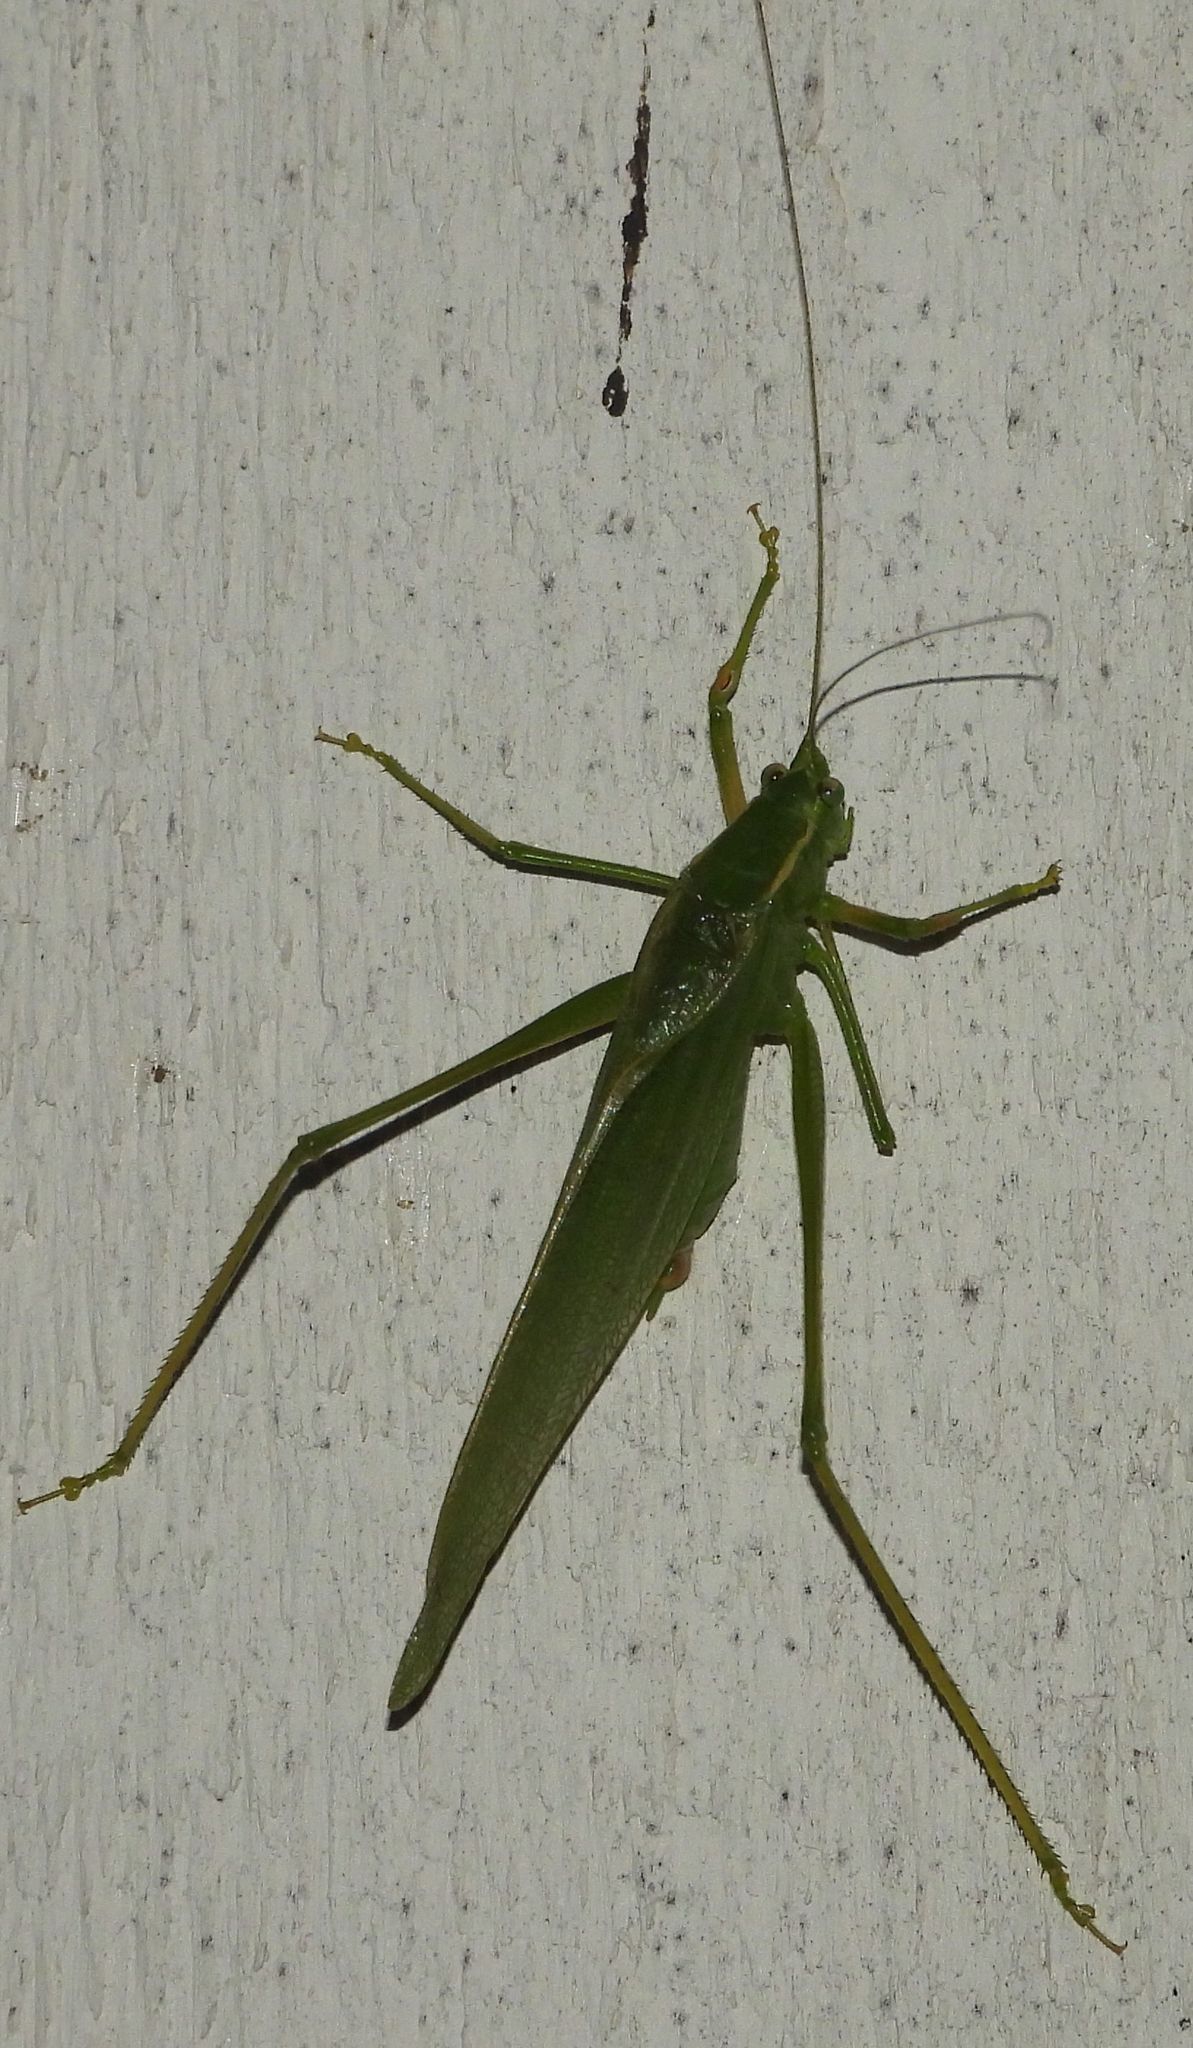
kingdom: Animalia
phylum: Arthropoda
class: Insecta
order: Orthoptera
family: Tettigoniidae
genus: Scudderia
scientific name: Scudderia septentrionalis
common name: Northern bush-katydid
